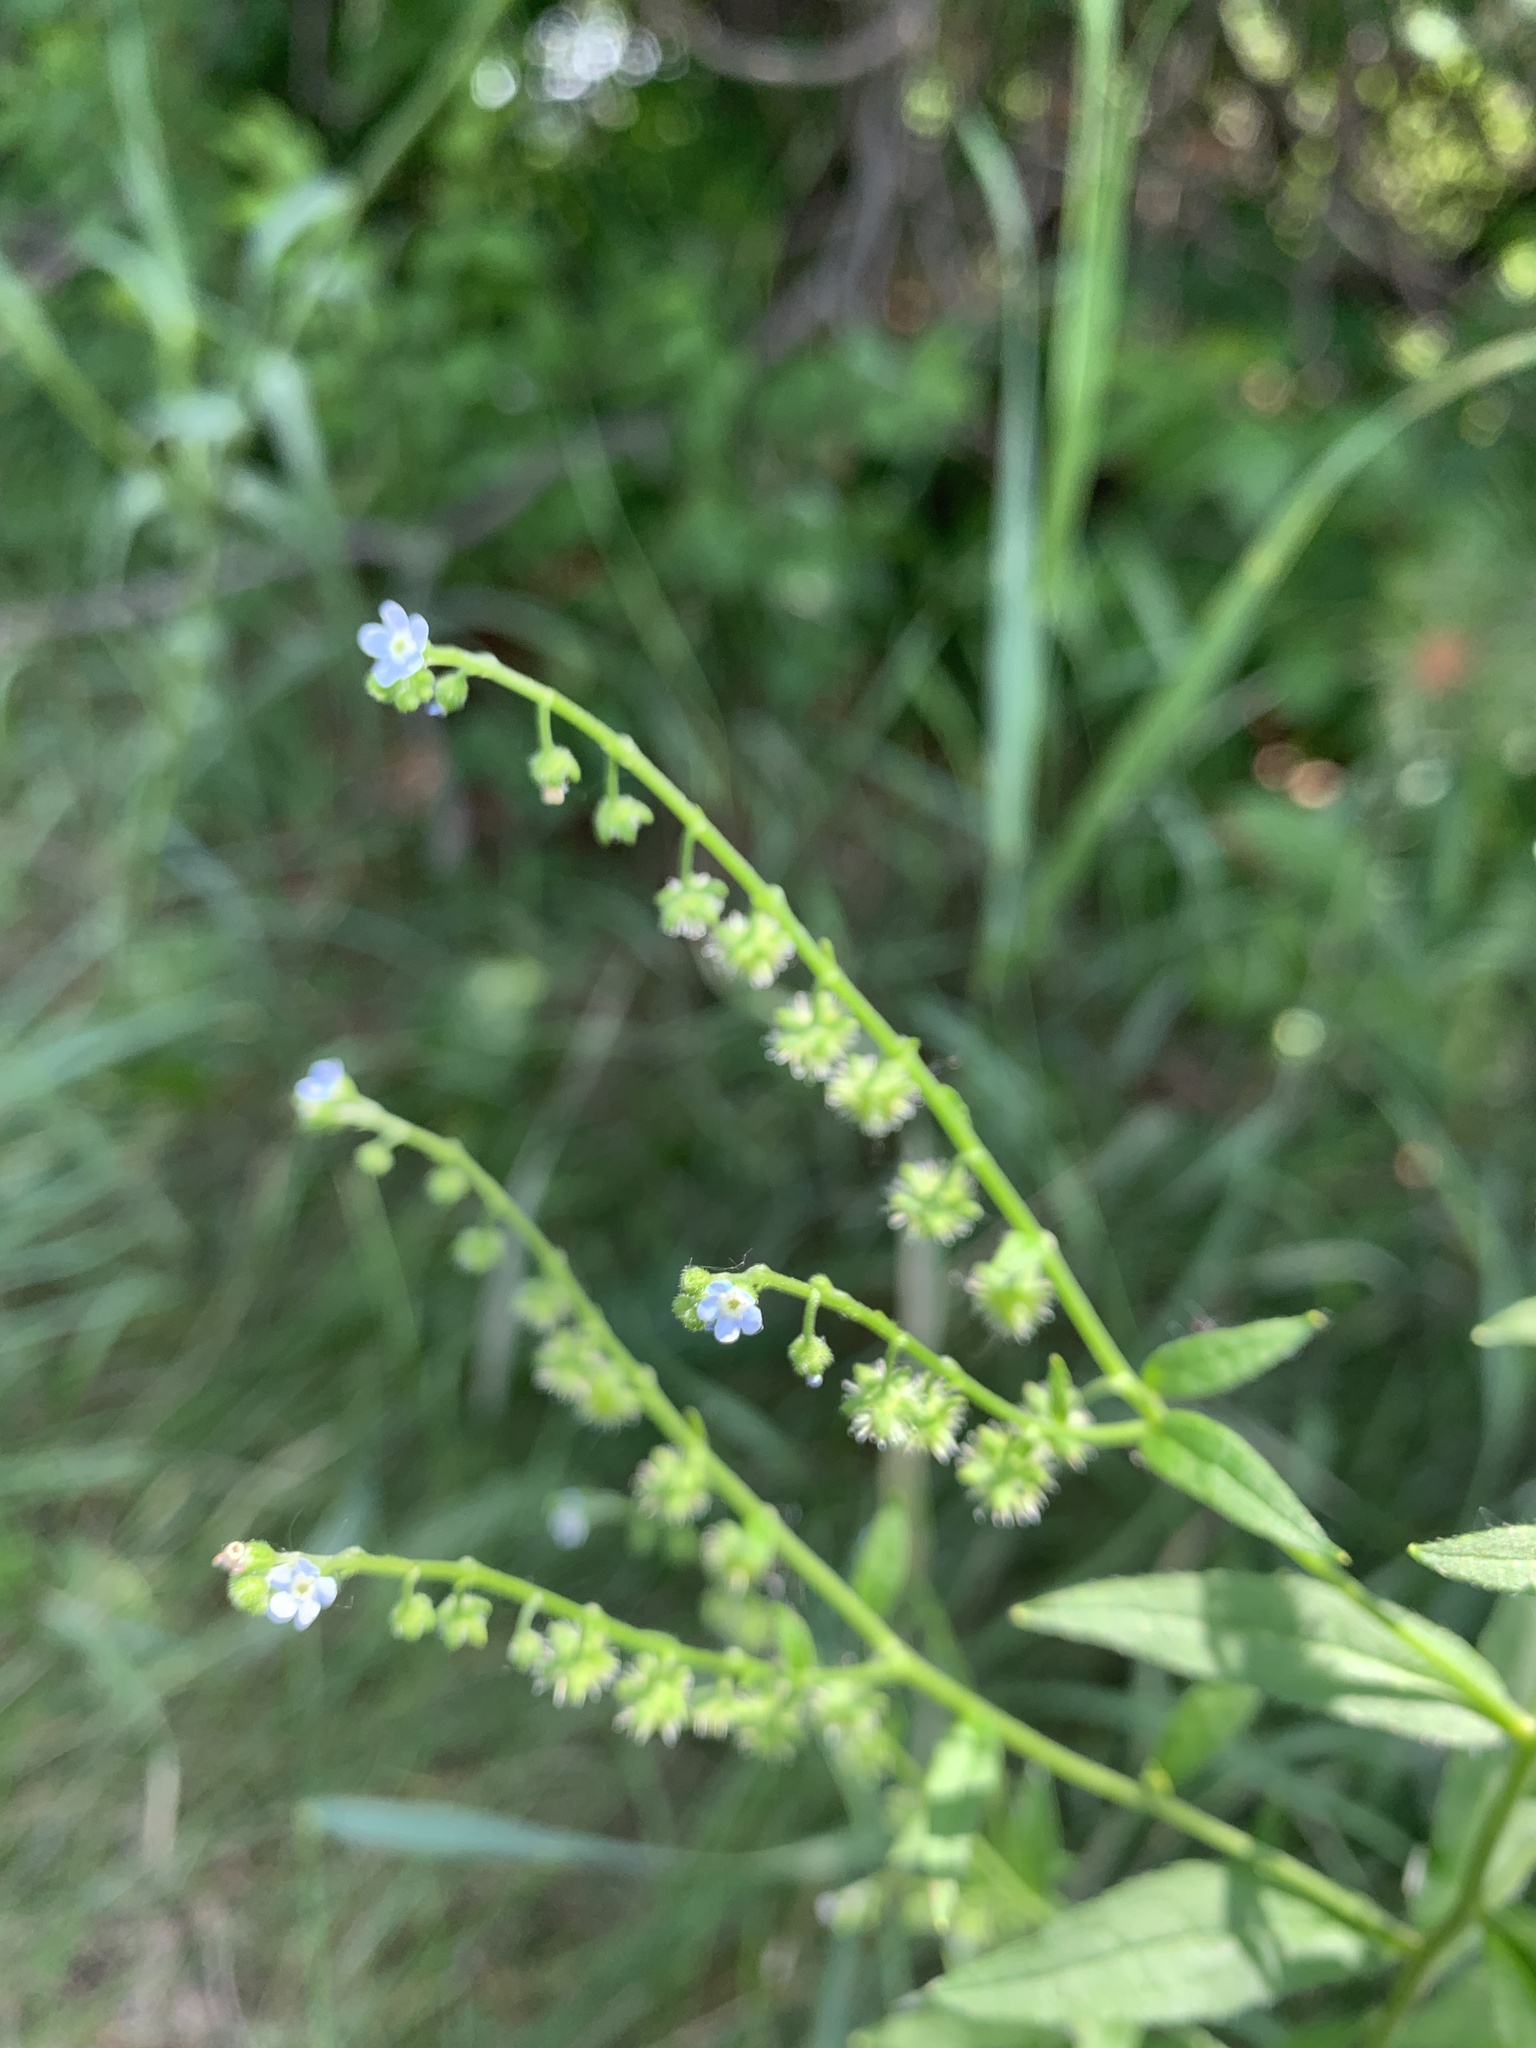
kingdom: Plantae
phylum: Tracheophyta
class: Magnoliopsida
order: Boraginales
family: Boraginaceae
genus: Hackelia
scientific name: Hackelia deflexa
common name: Nodding stickseed
